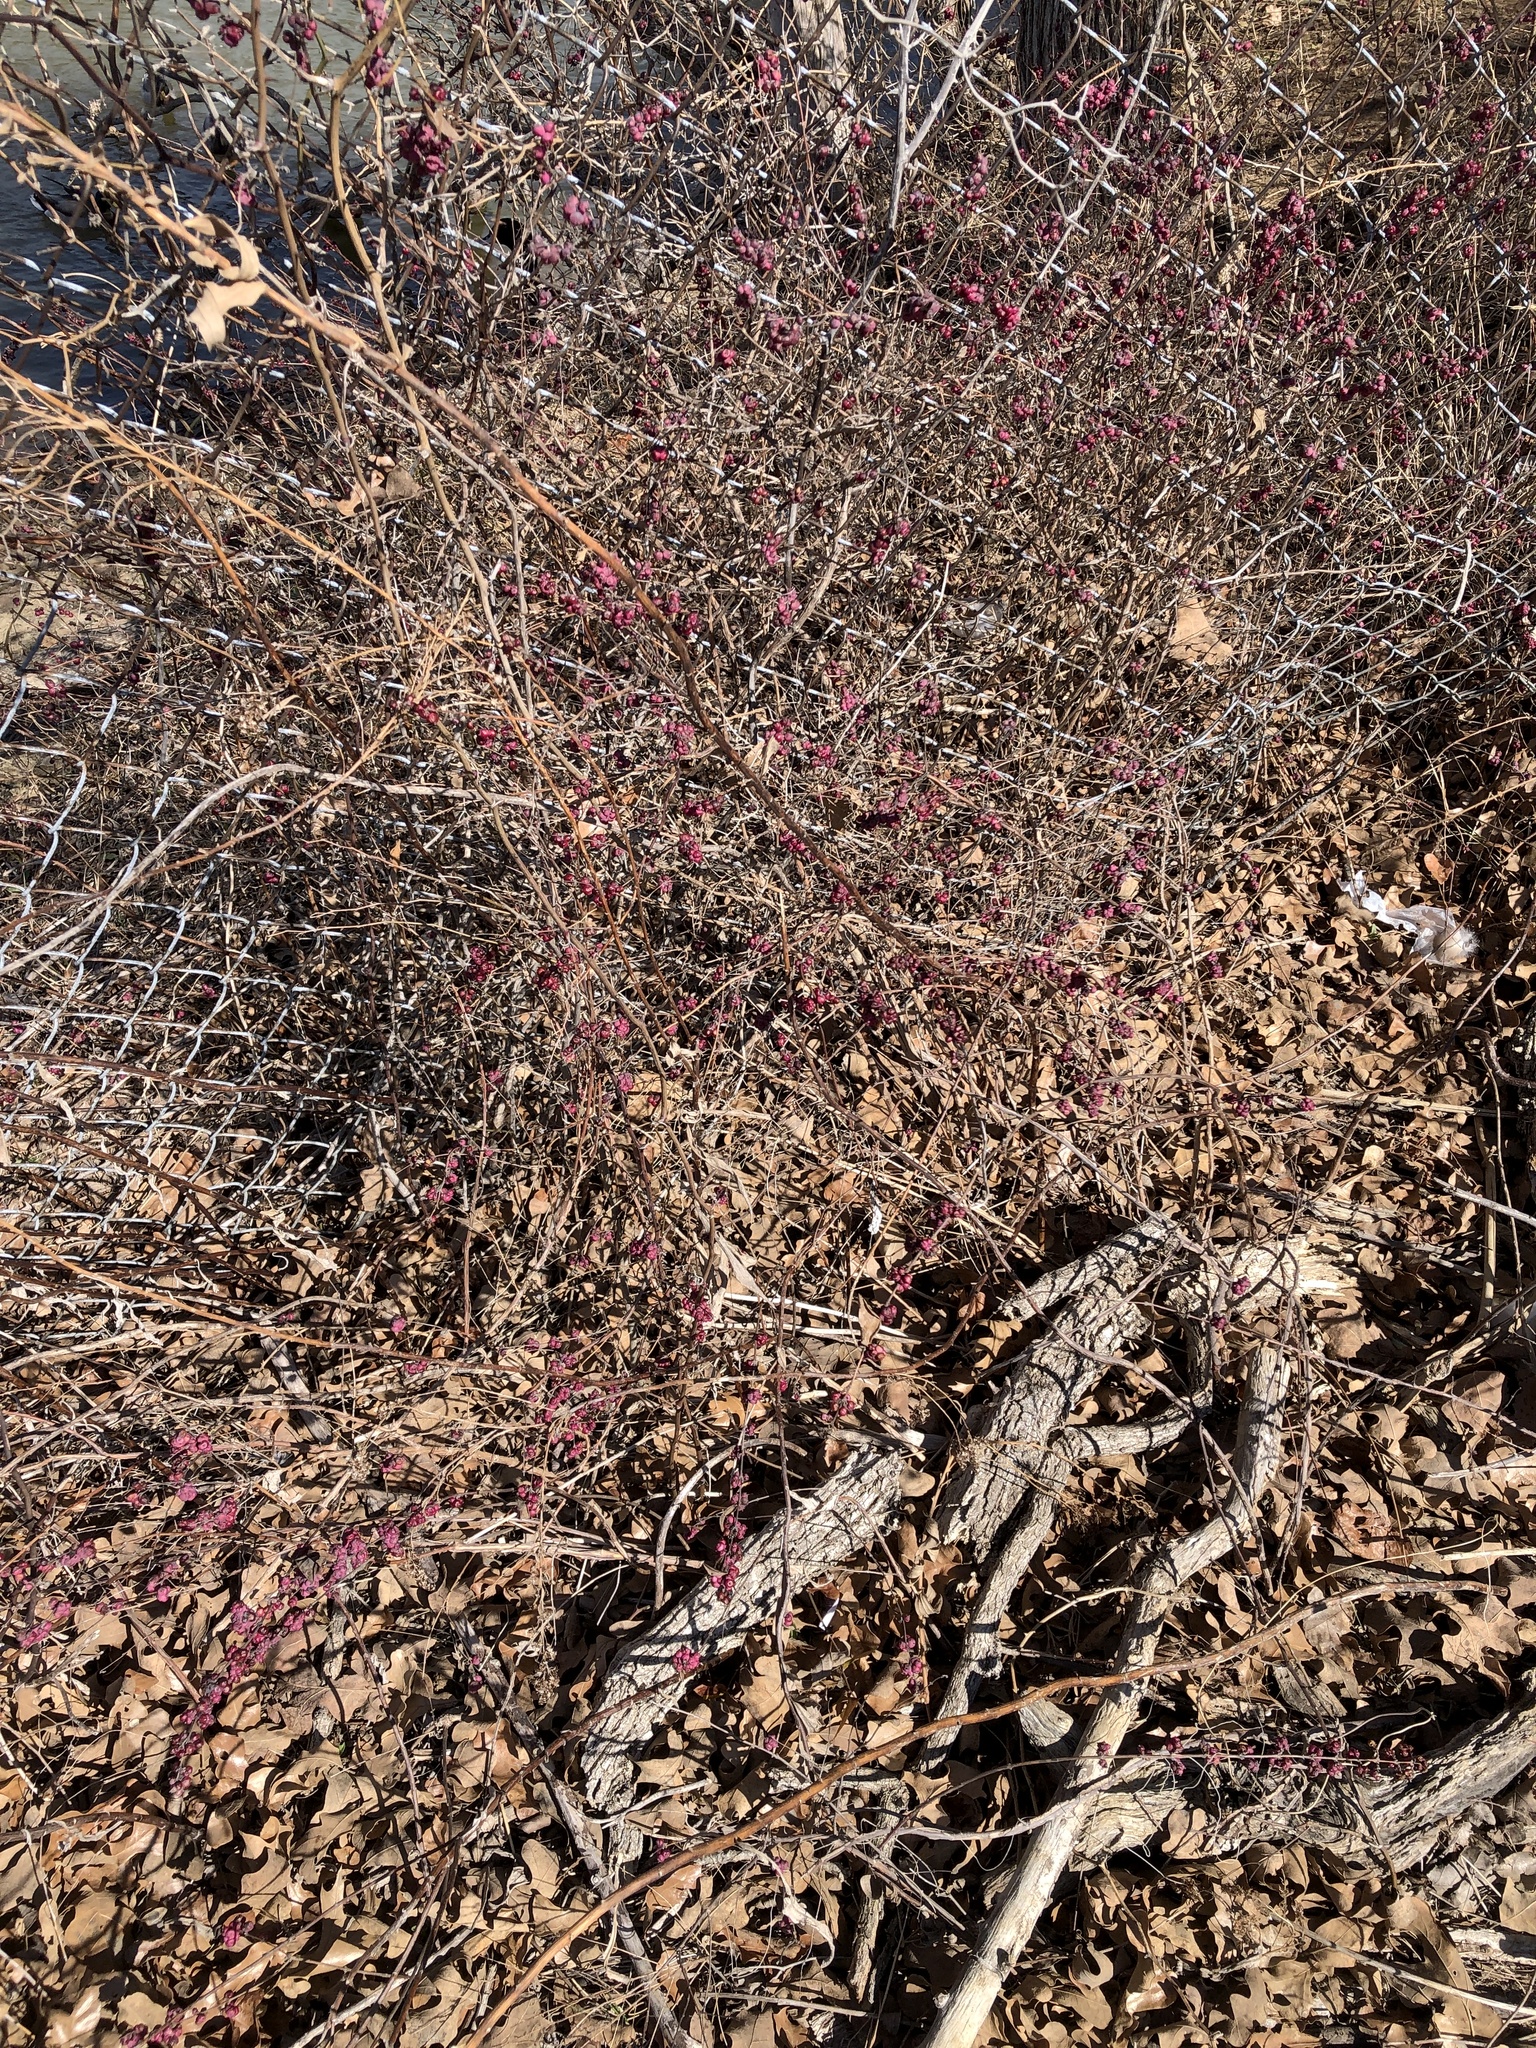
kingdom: Plantae
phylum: Tracheophyta
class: Magnoliopsida
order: Dipsacales
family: Caprifoliaceae
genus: Symphoricarpos
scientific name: Symphoricarpos orbiculatus
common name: Coralberry
